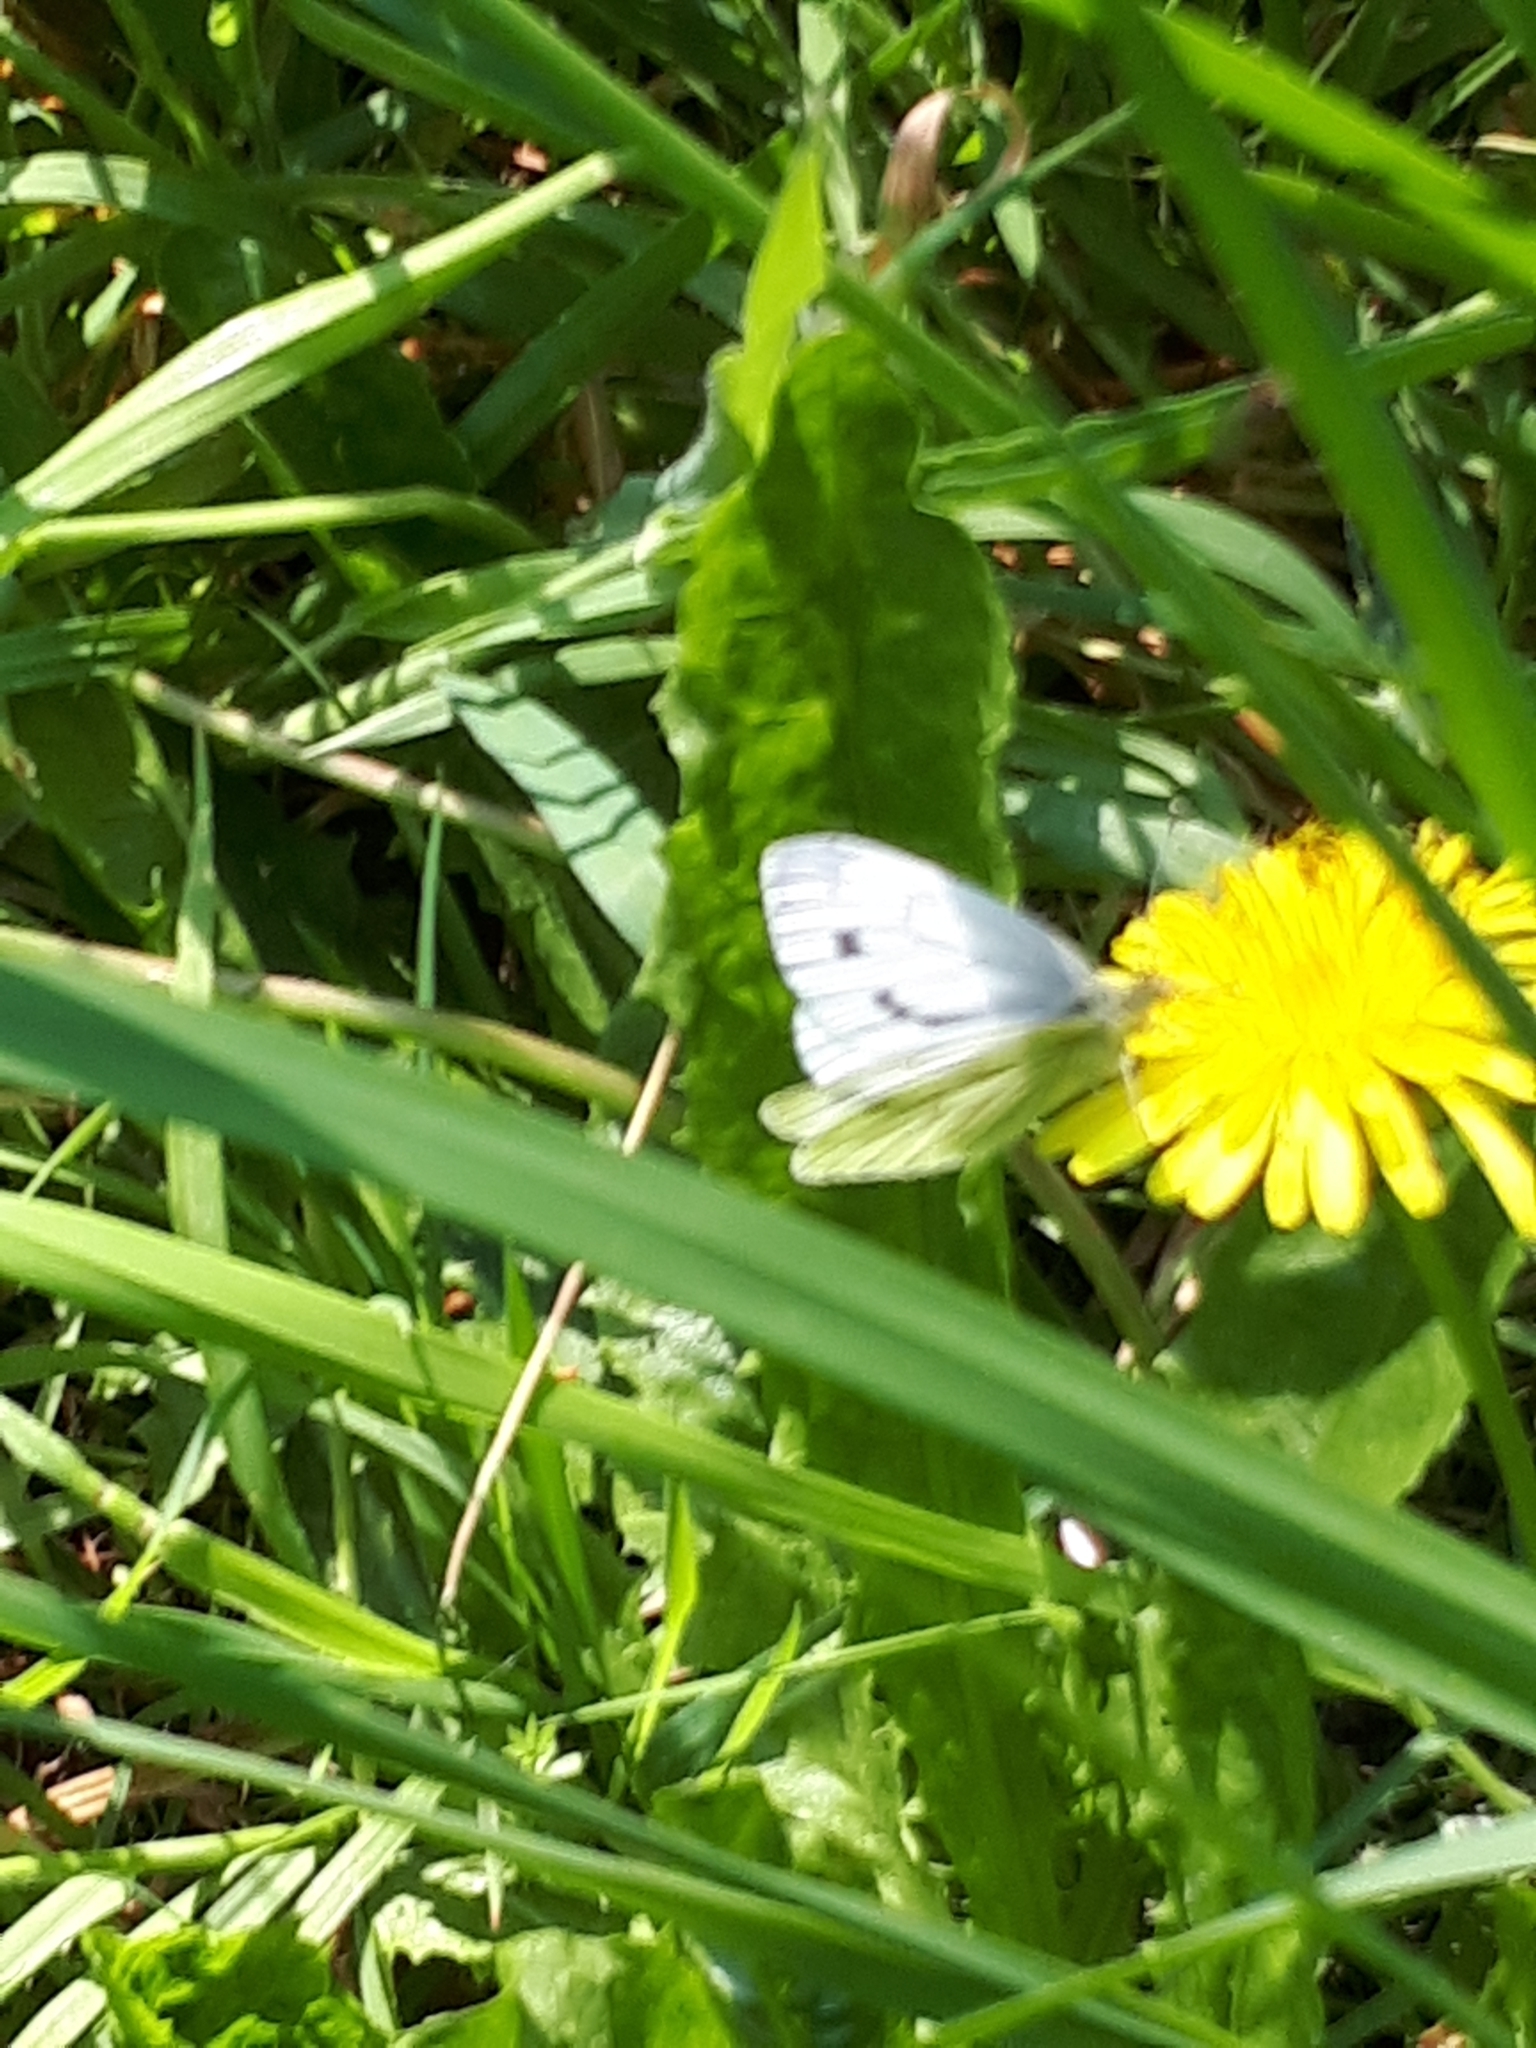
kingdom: Animalia
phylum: Arthropoda
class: Insecta
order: Lepidoptera
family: Pieridae
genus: Pieris
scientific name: Pieris napi
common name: Green-veined white
